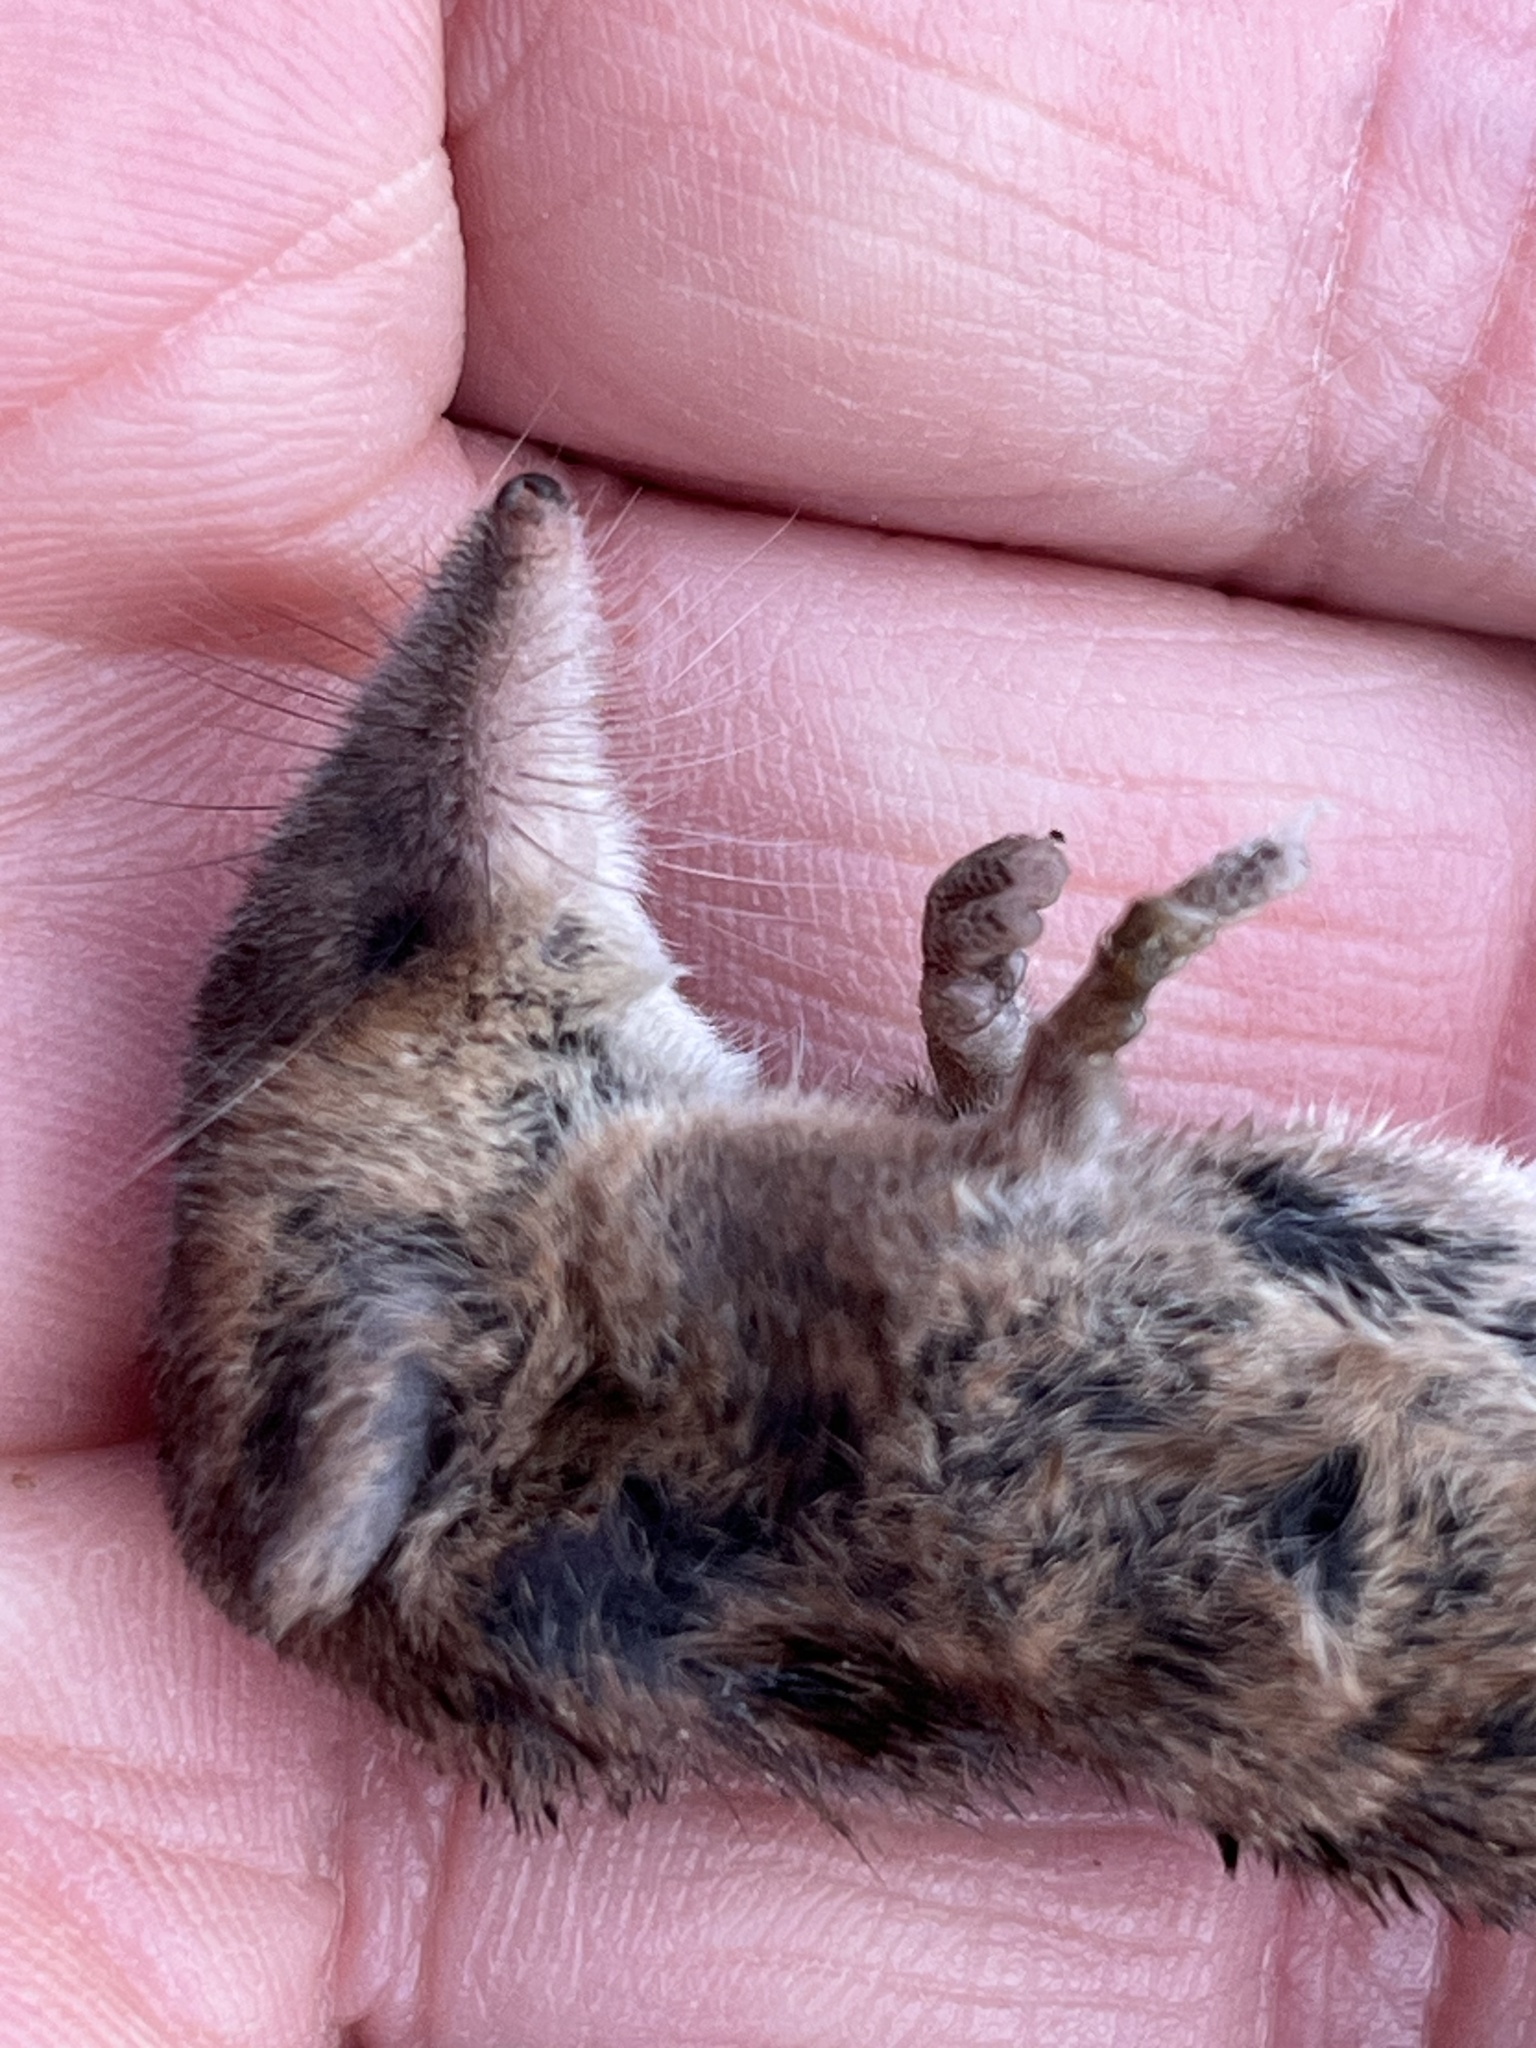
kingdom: Animalia
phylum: Chordata
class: Mammalia
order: Soricomorpha
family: Soricidae
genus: Sorex
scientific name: Sorex vagrans
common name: Vagrant shrew
